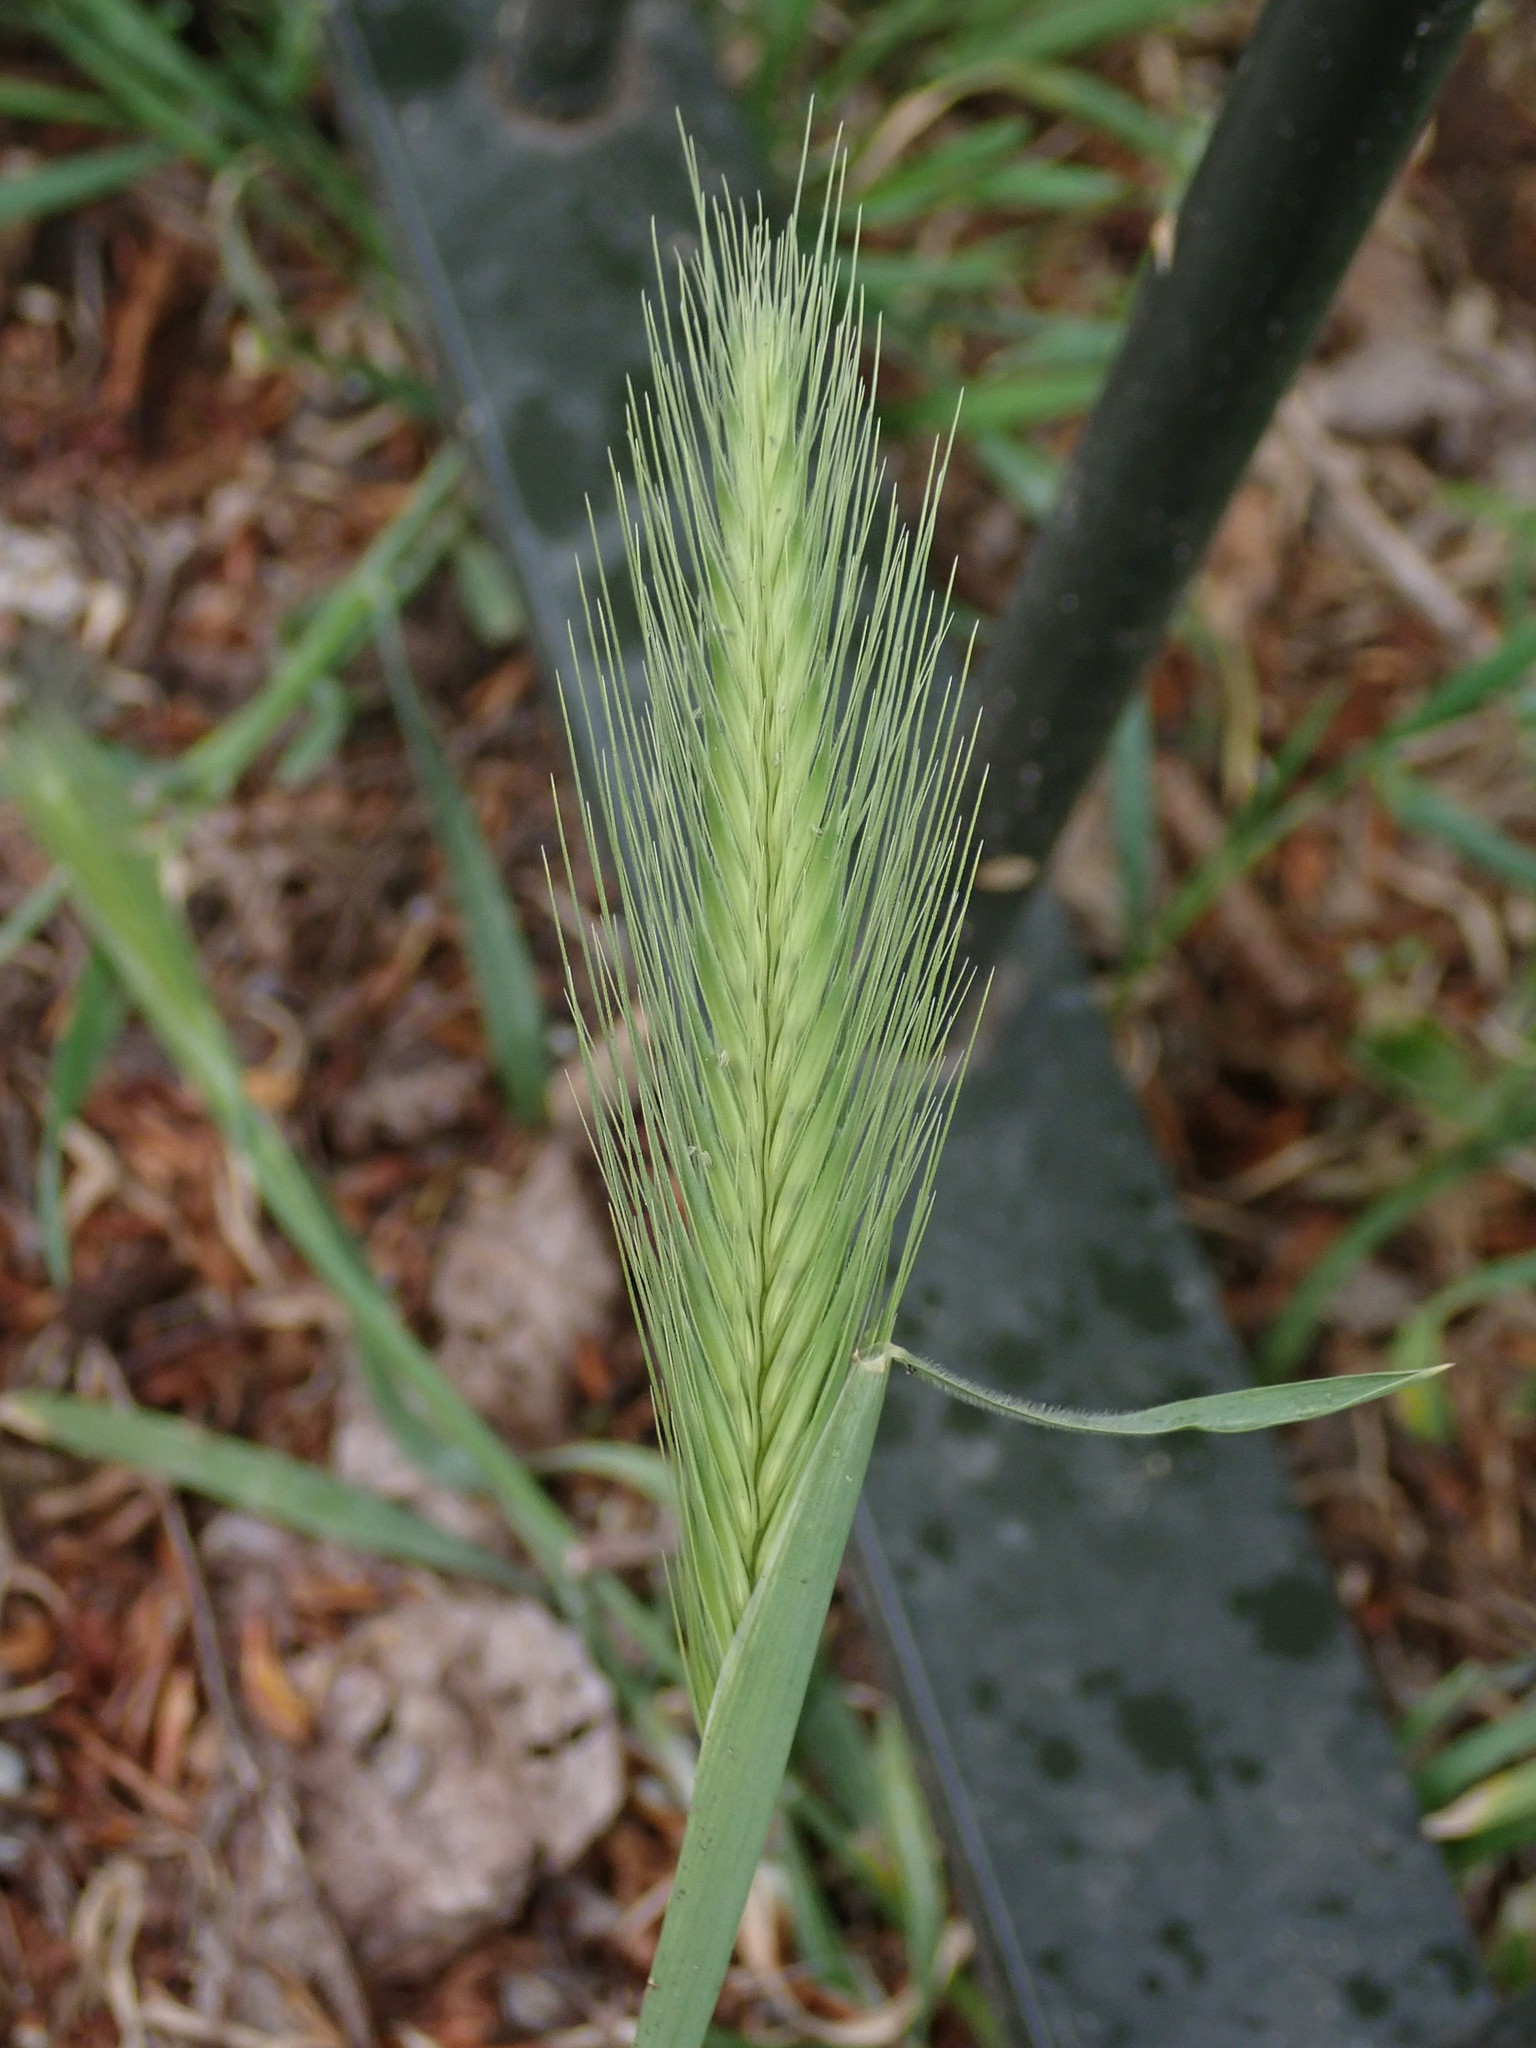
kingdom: Plantae
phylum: Tracheophyta
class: Liliopsida
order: Poales
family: Poaceae
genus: Hordeum
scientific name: Hordeum murinum
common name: Wall barley
